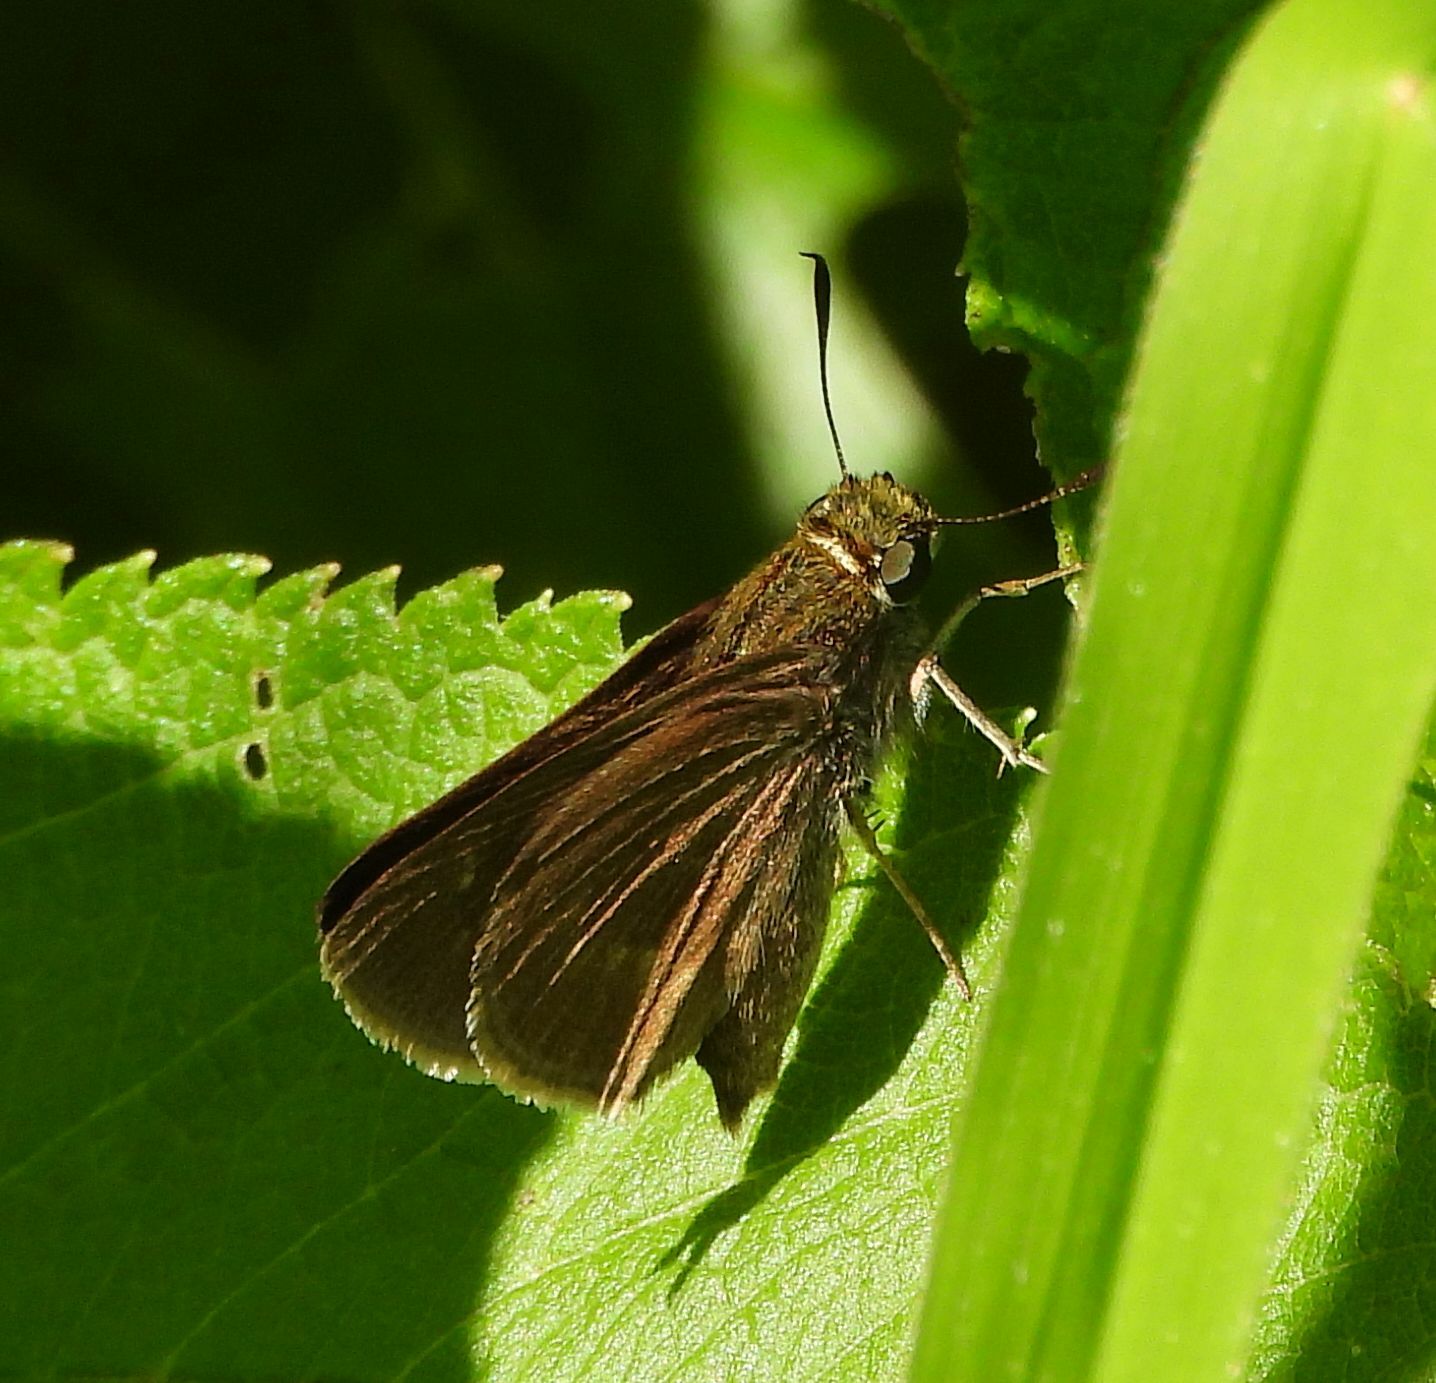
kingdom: Animalia
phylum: Arthropoda
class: Insecta
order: Lepidoptera
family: Hesperiidae
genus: Euphyes
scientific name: Euphyes vestris
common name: Dun skipper
